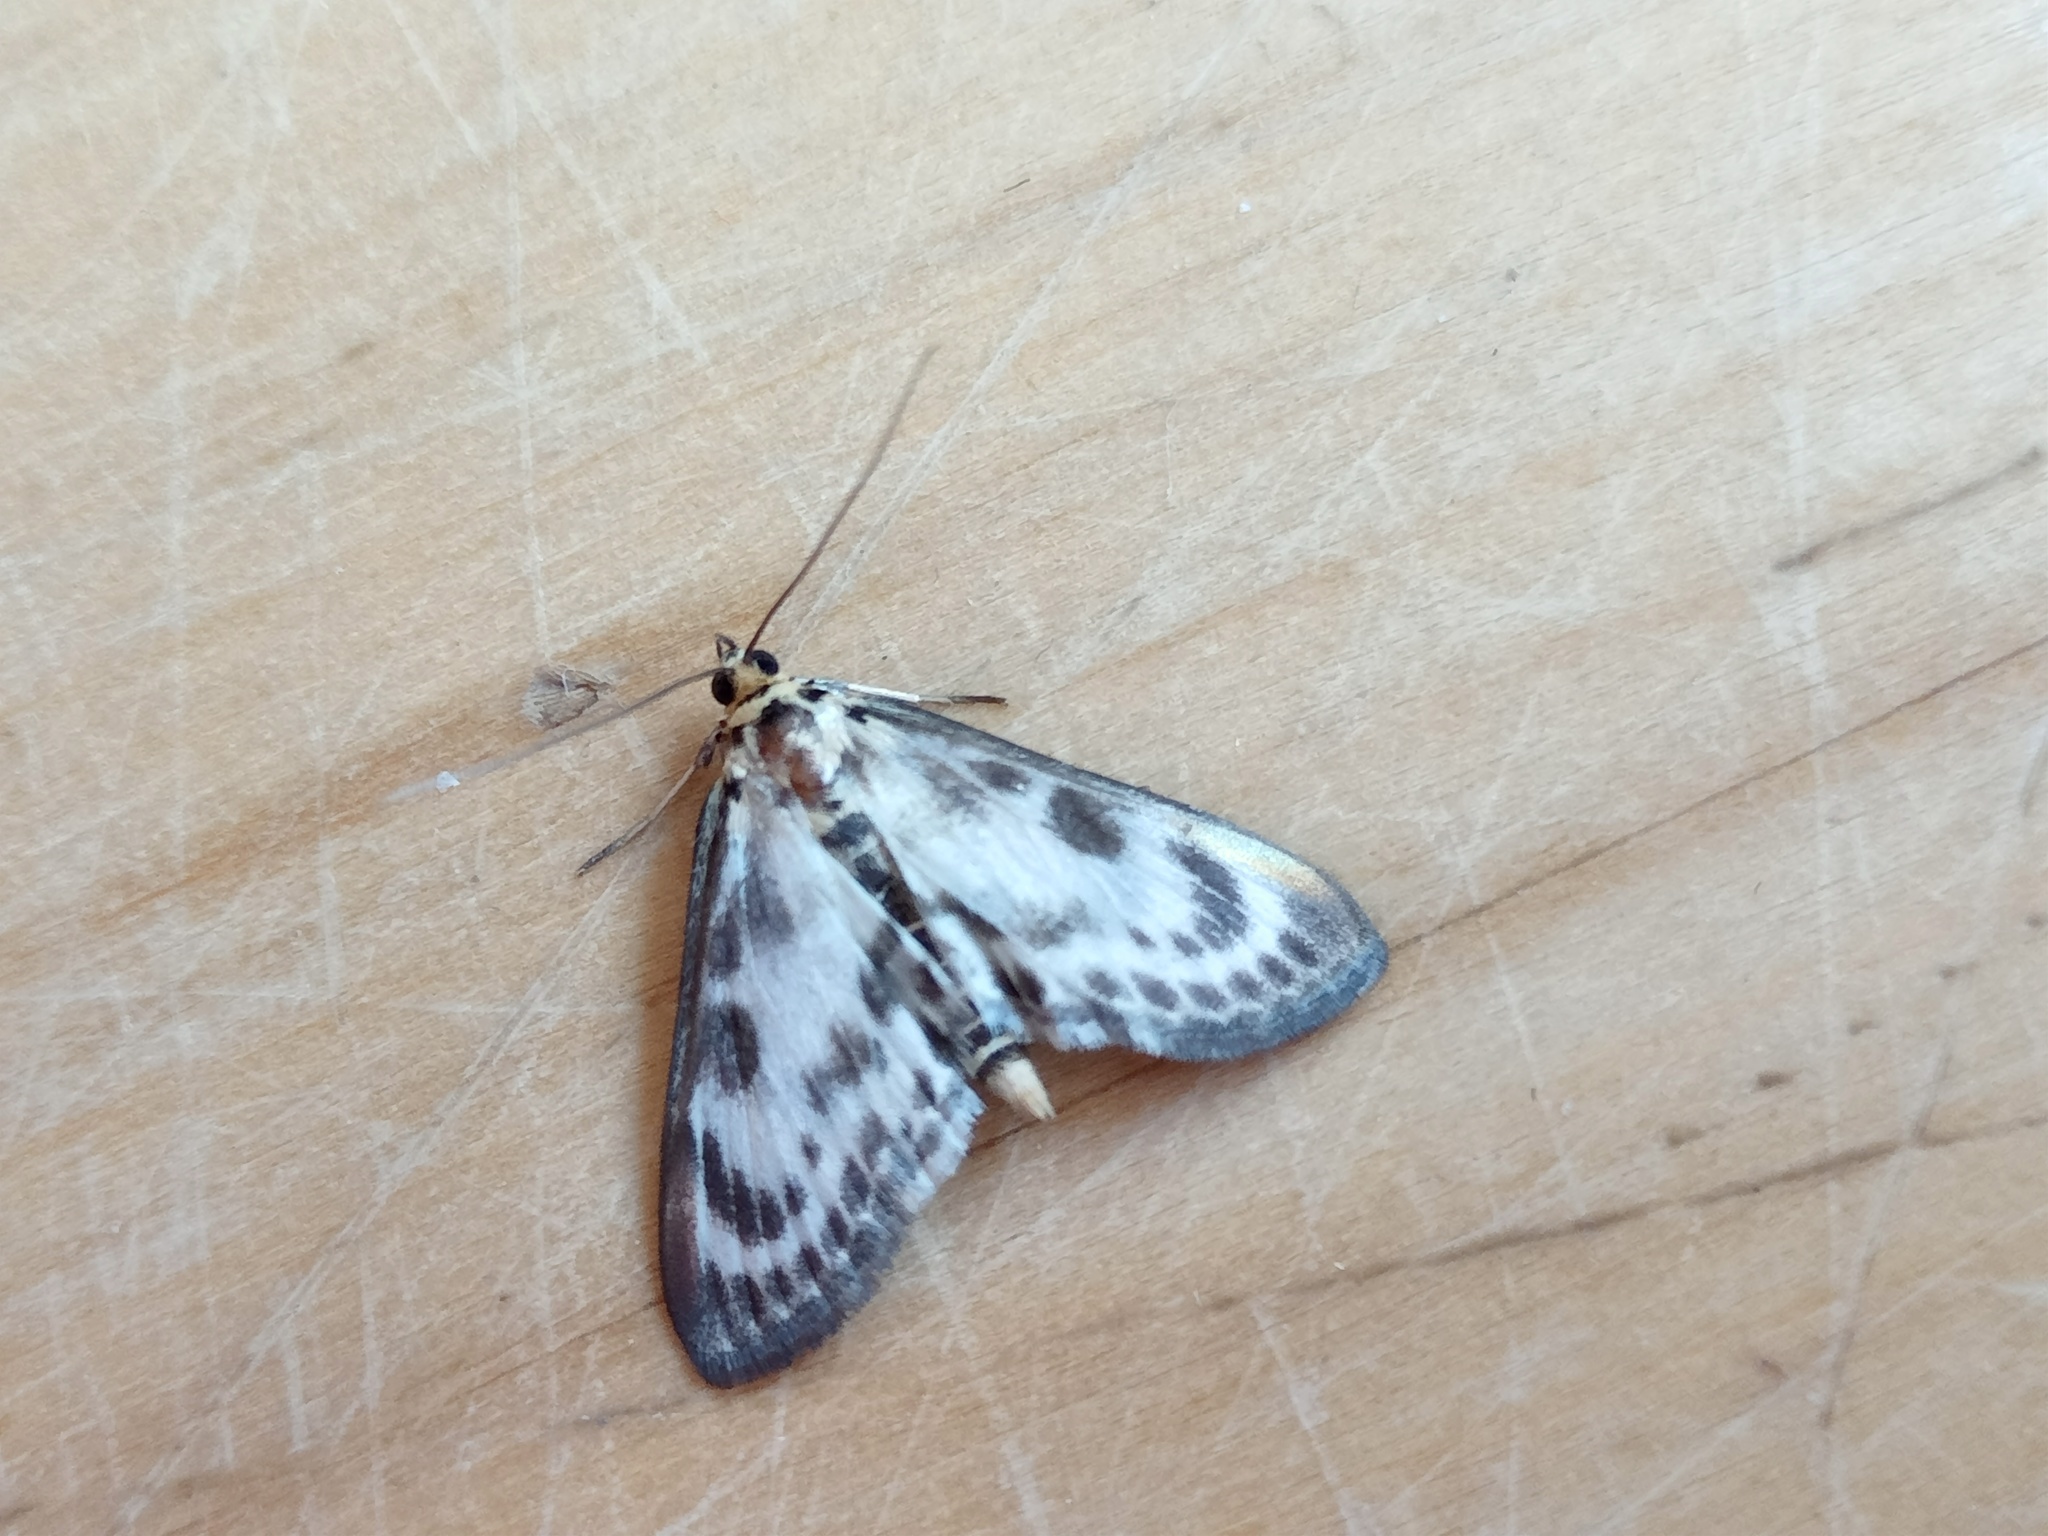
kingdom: Animalia
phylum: Arthropoda
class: Insecta
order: Lepidoptera
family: Crambidae
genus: Anania
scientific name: Anania hortulata
